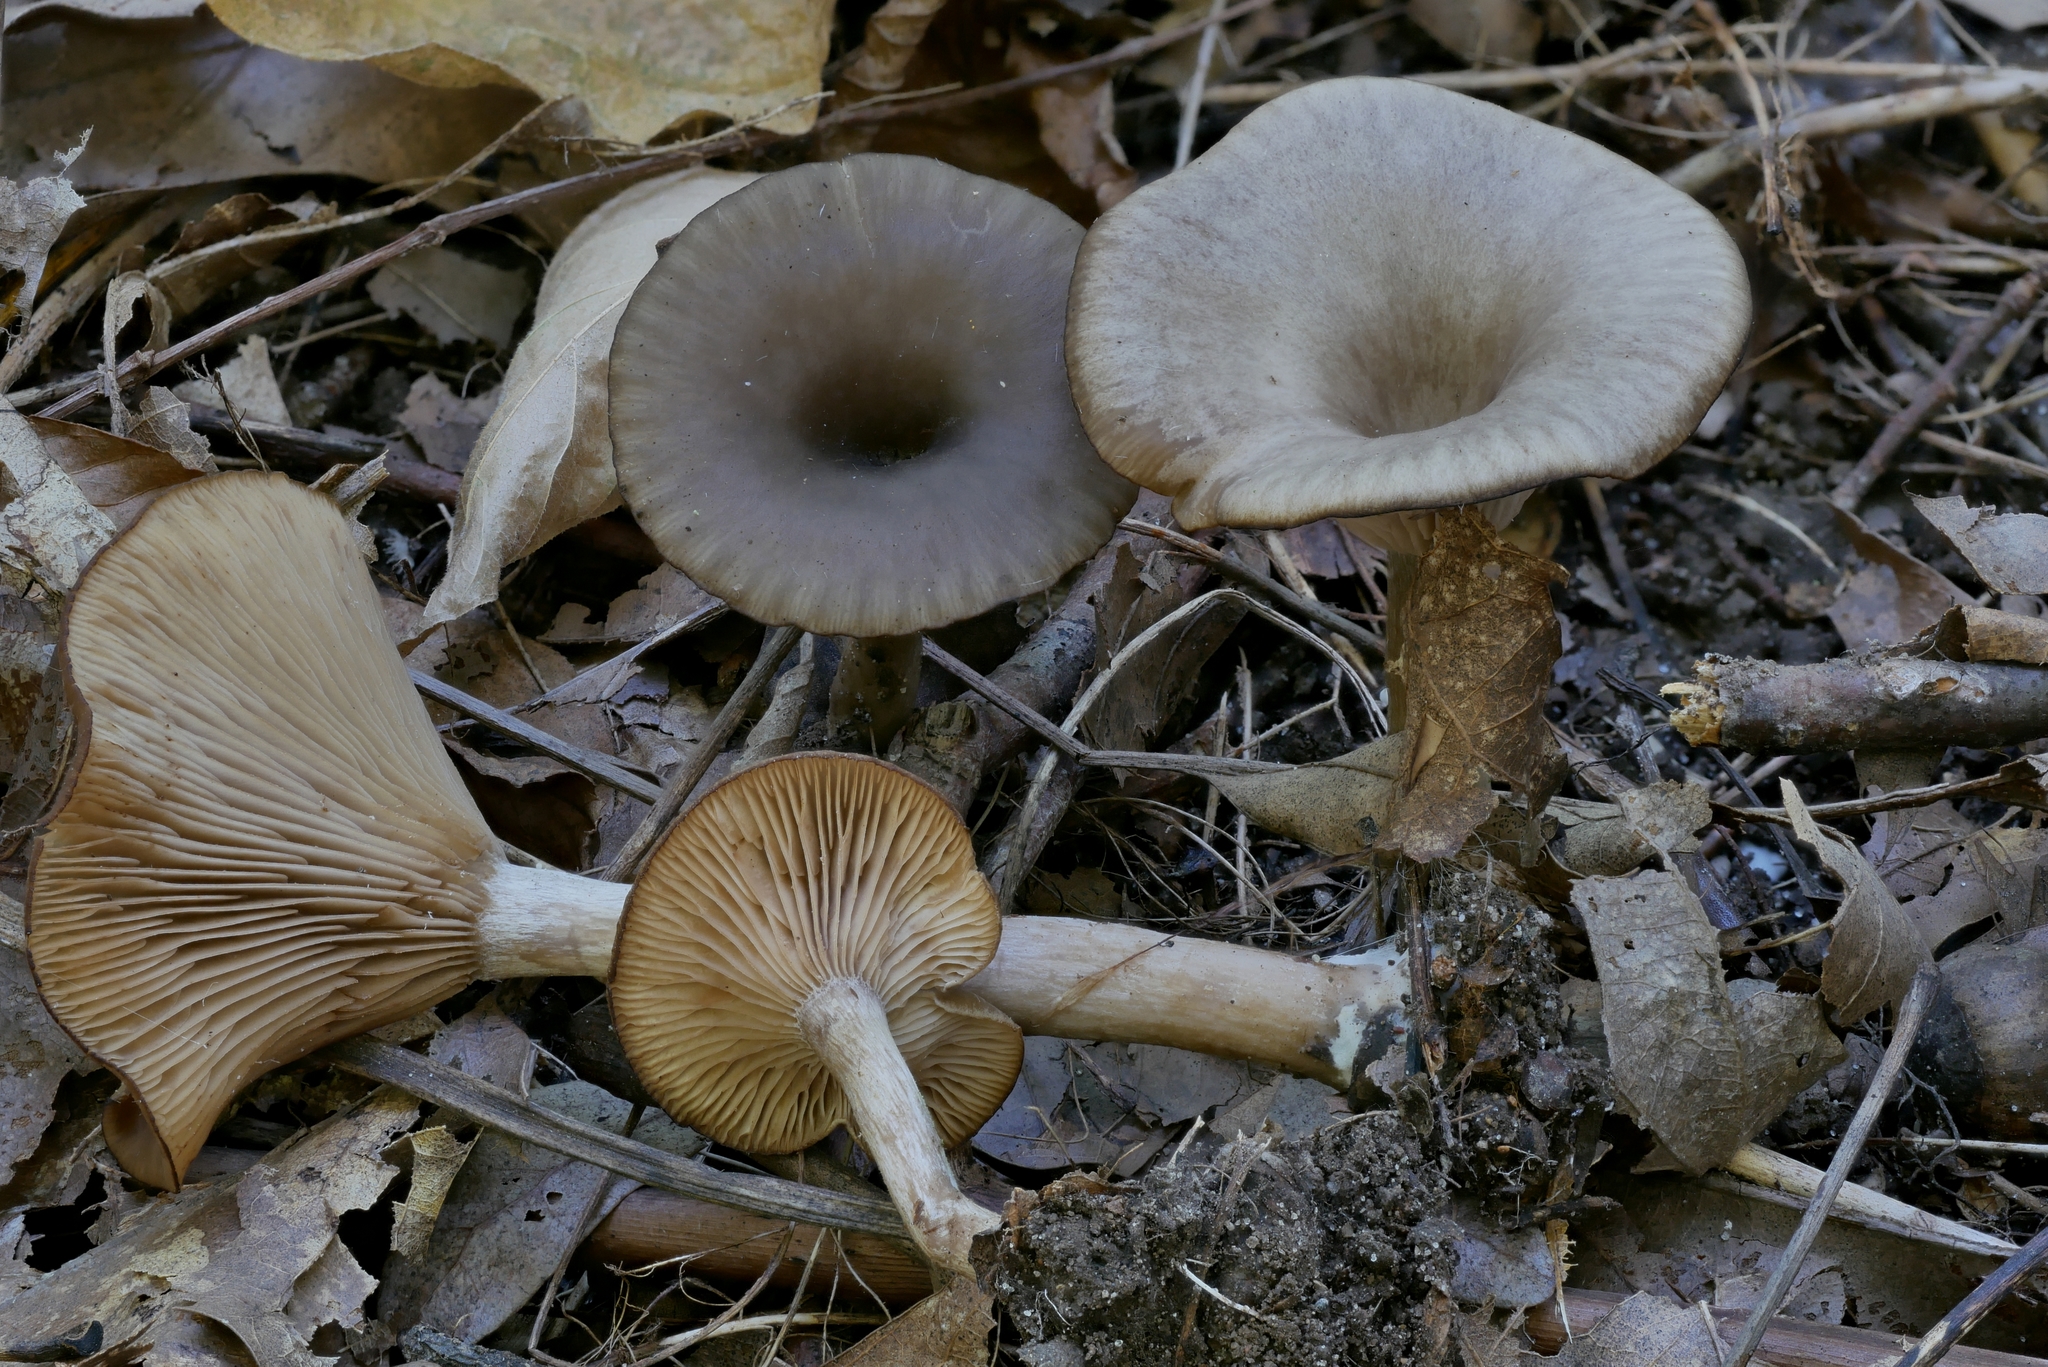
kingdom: Fungi
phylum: Basidiomycota
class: Agaricomycetes
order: Agaricales
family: Pseudoclitocybaceae
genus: Pseudoclitocybe
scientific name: Pseudoclitocybe cyathiformis
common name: Goblet
